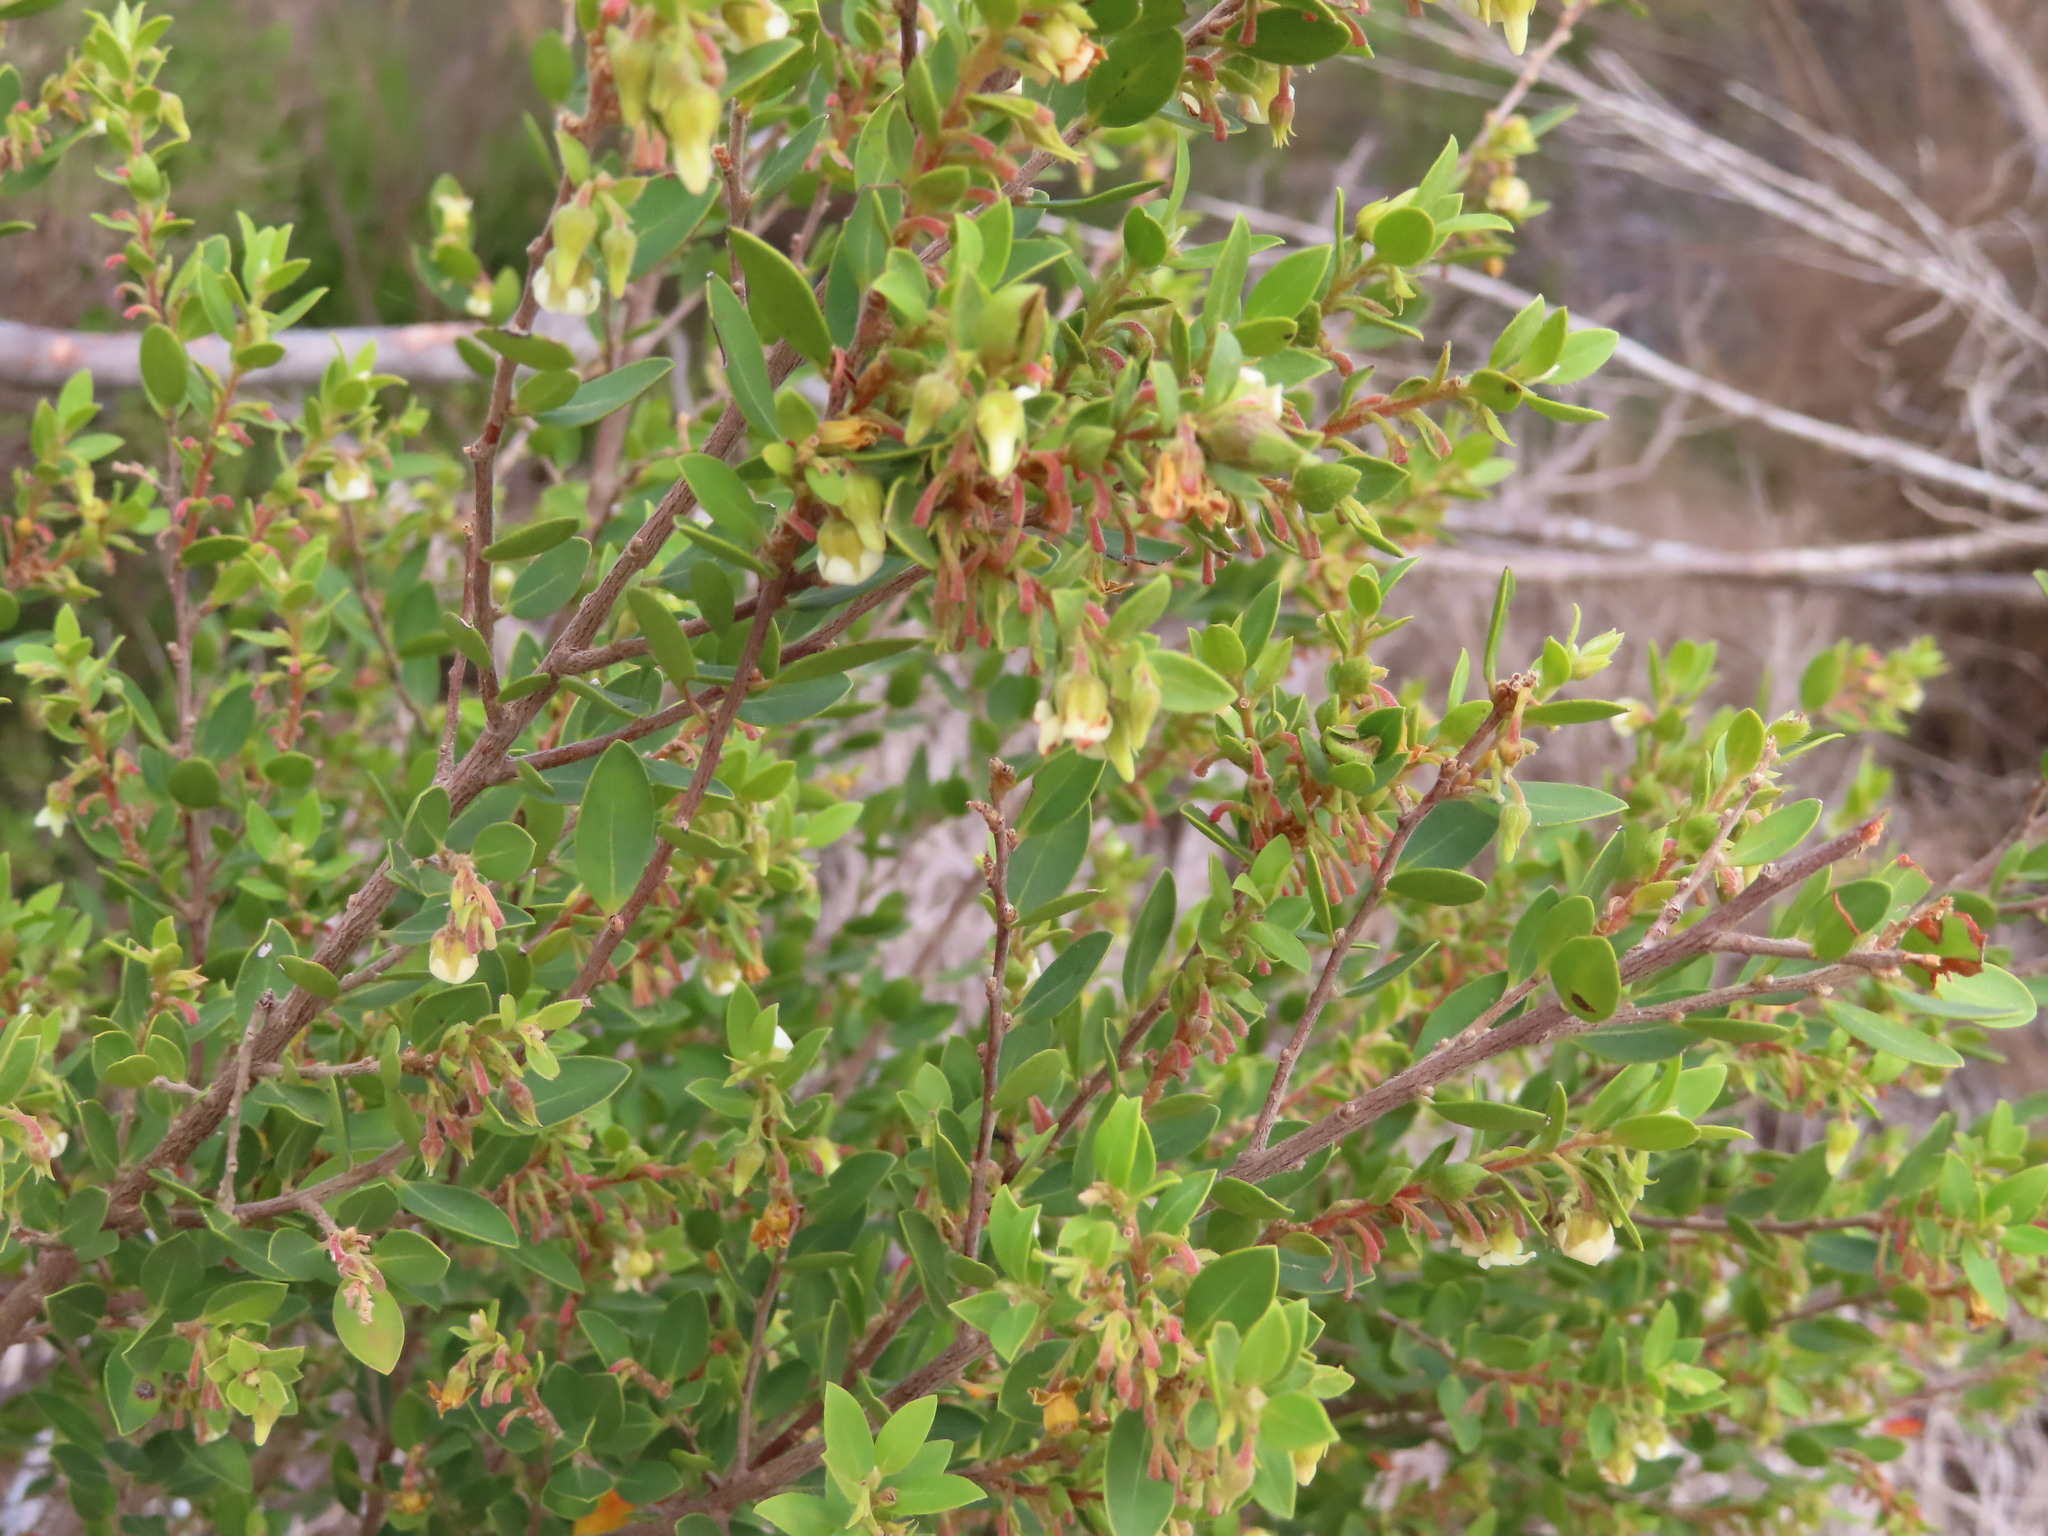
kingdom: Plantae
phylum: Tracheophyta
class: Magnoliopsida
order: Ericales
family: Ebenaceae
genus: Diospyros
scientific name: Diospyros glabra
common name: Fynbos star apple
